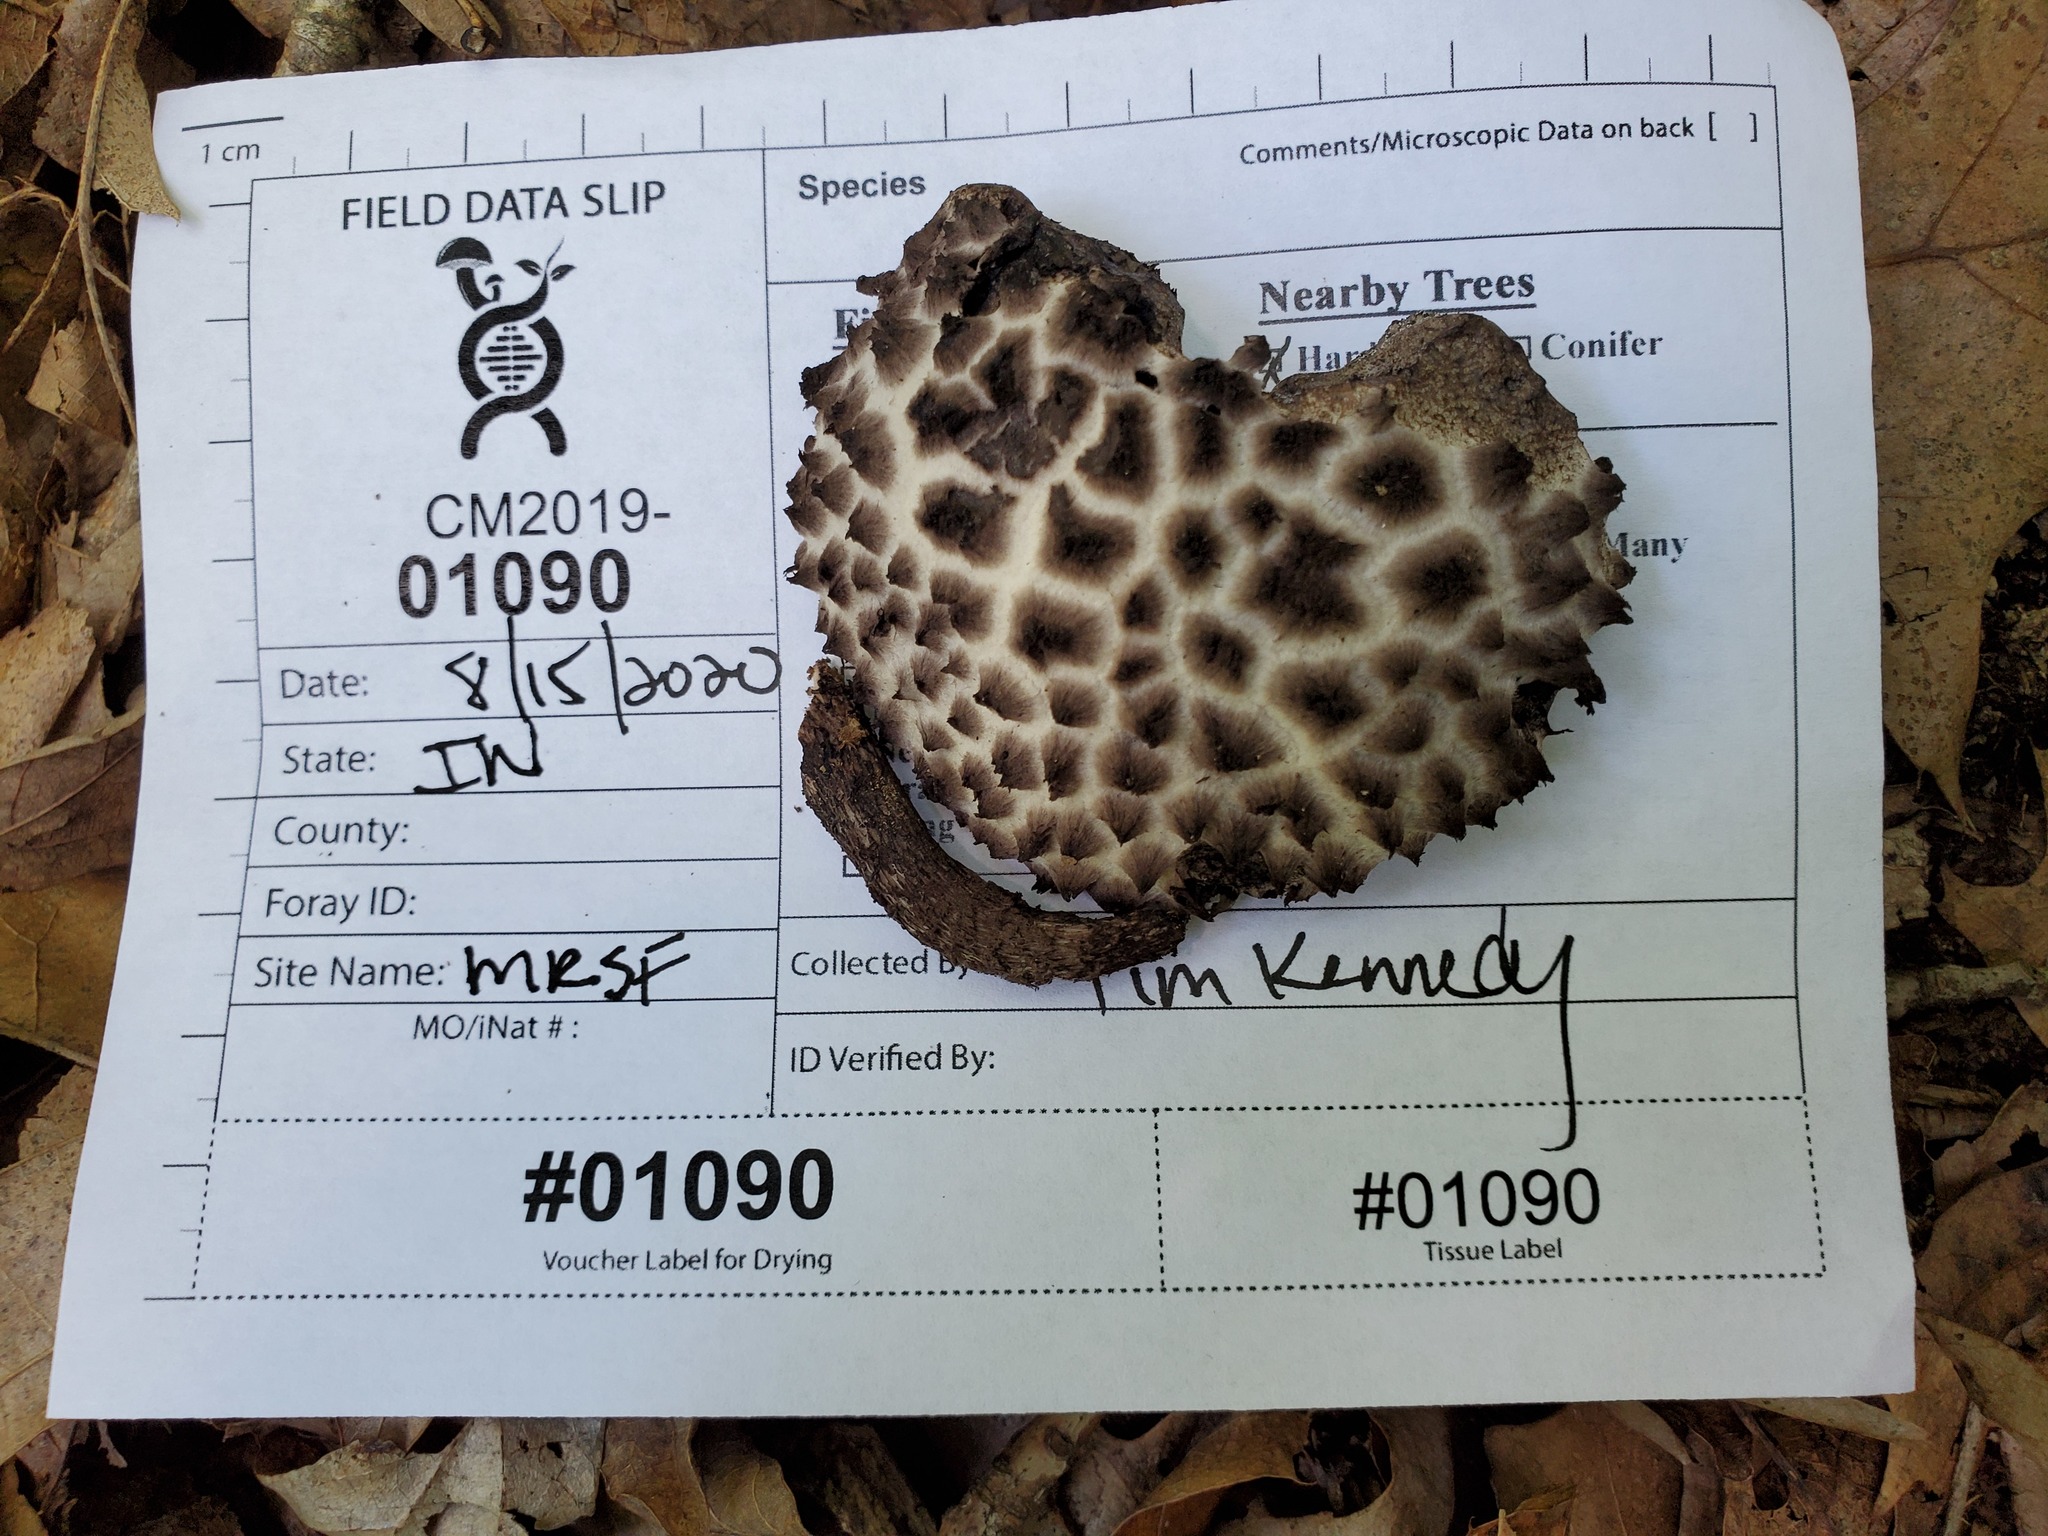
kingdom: Fungi
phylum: Basidiomycota
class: Agaricomycetes
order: Boletales
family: Boletaceae
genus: Strobilomyces
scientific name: Strobilomyces strobilaceus
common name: Old man of the woods
